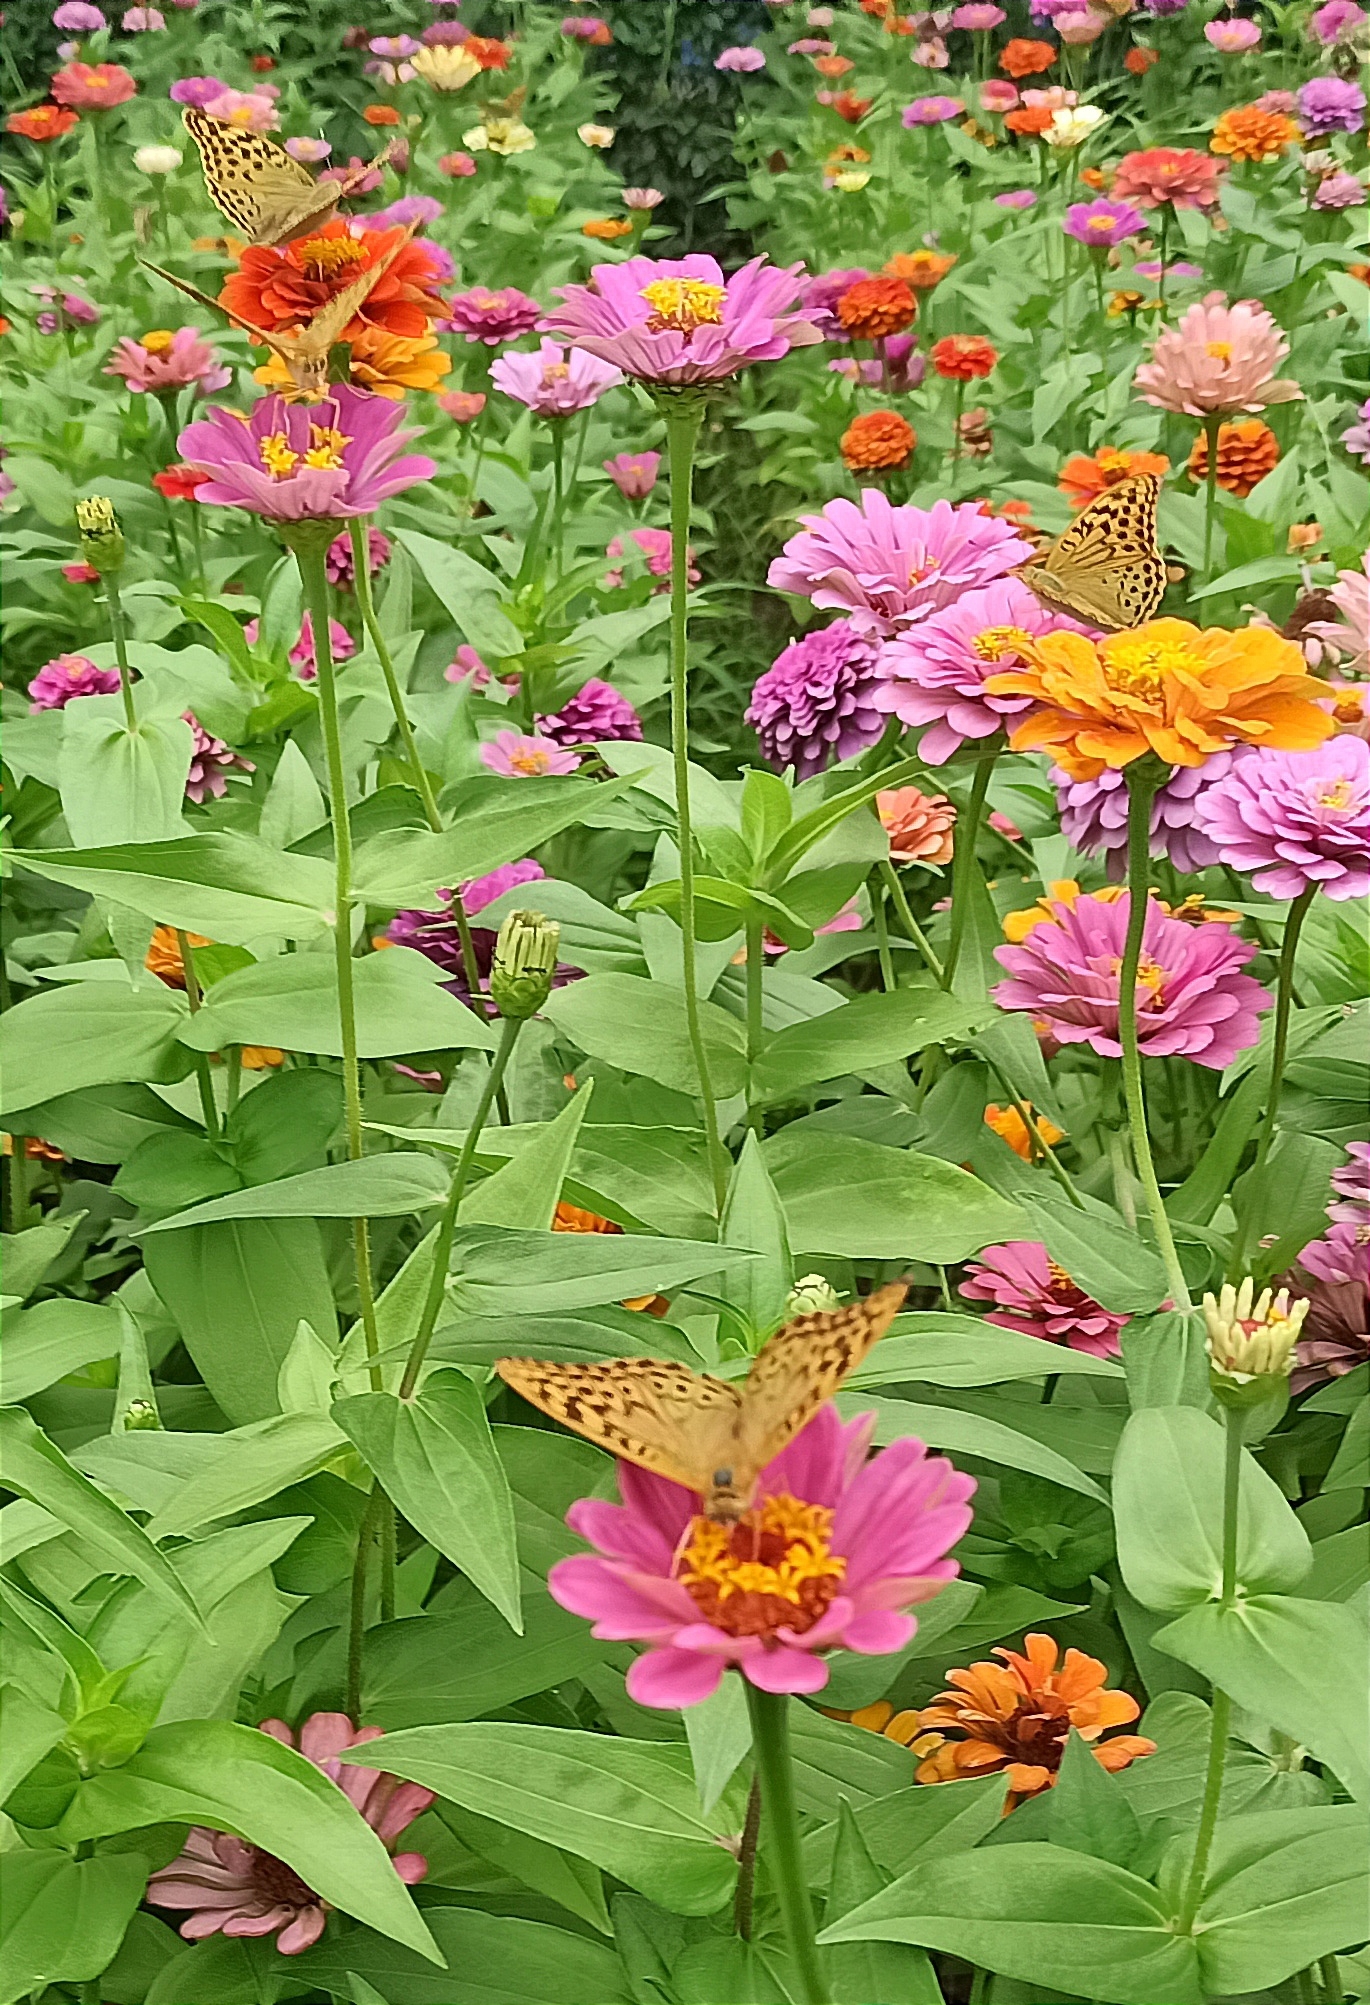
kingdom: Animalia
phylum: Arthropoda
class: Insecta
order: Lepidoptera
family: Nymphalidae
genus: Damora
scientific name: Damora pandora
